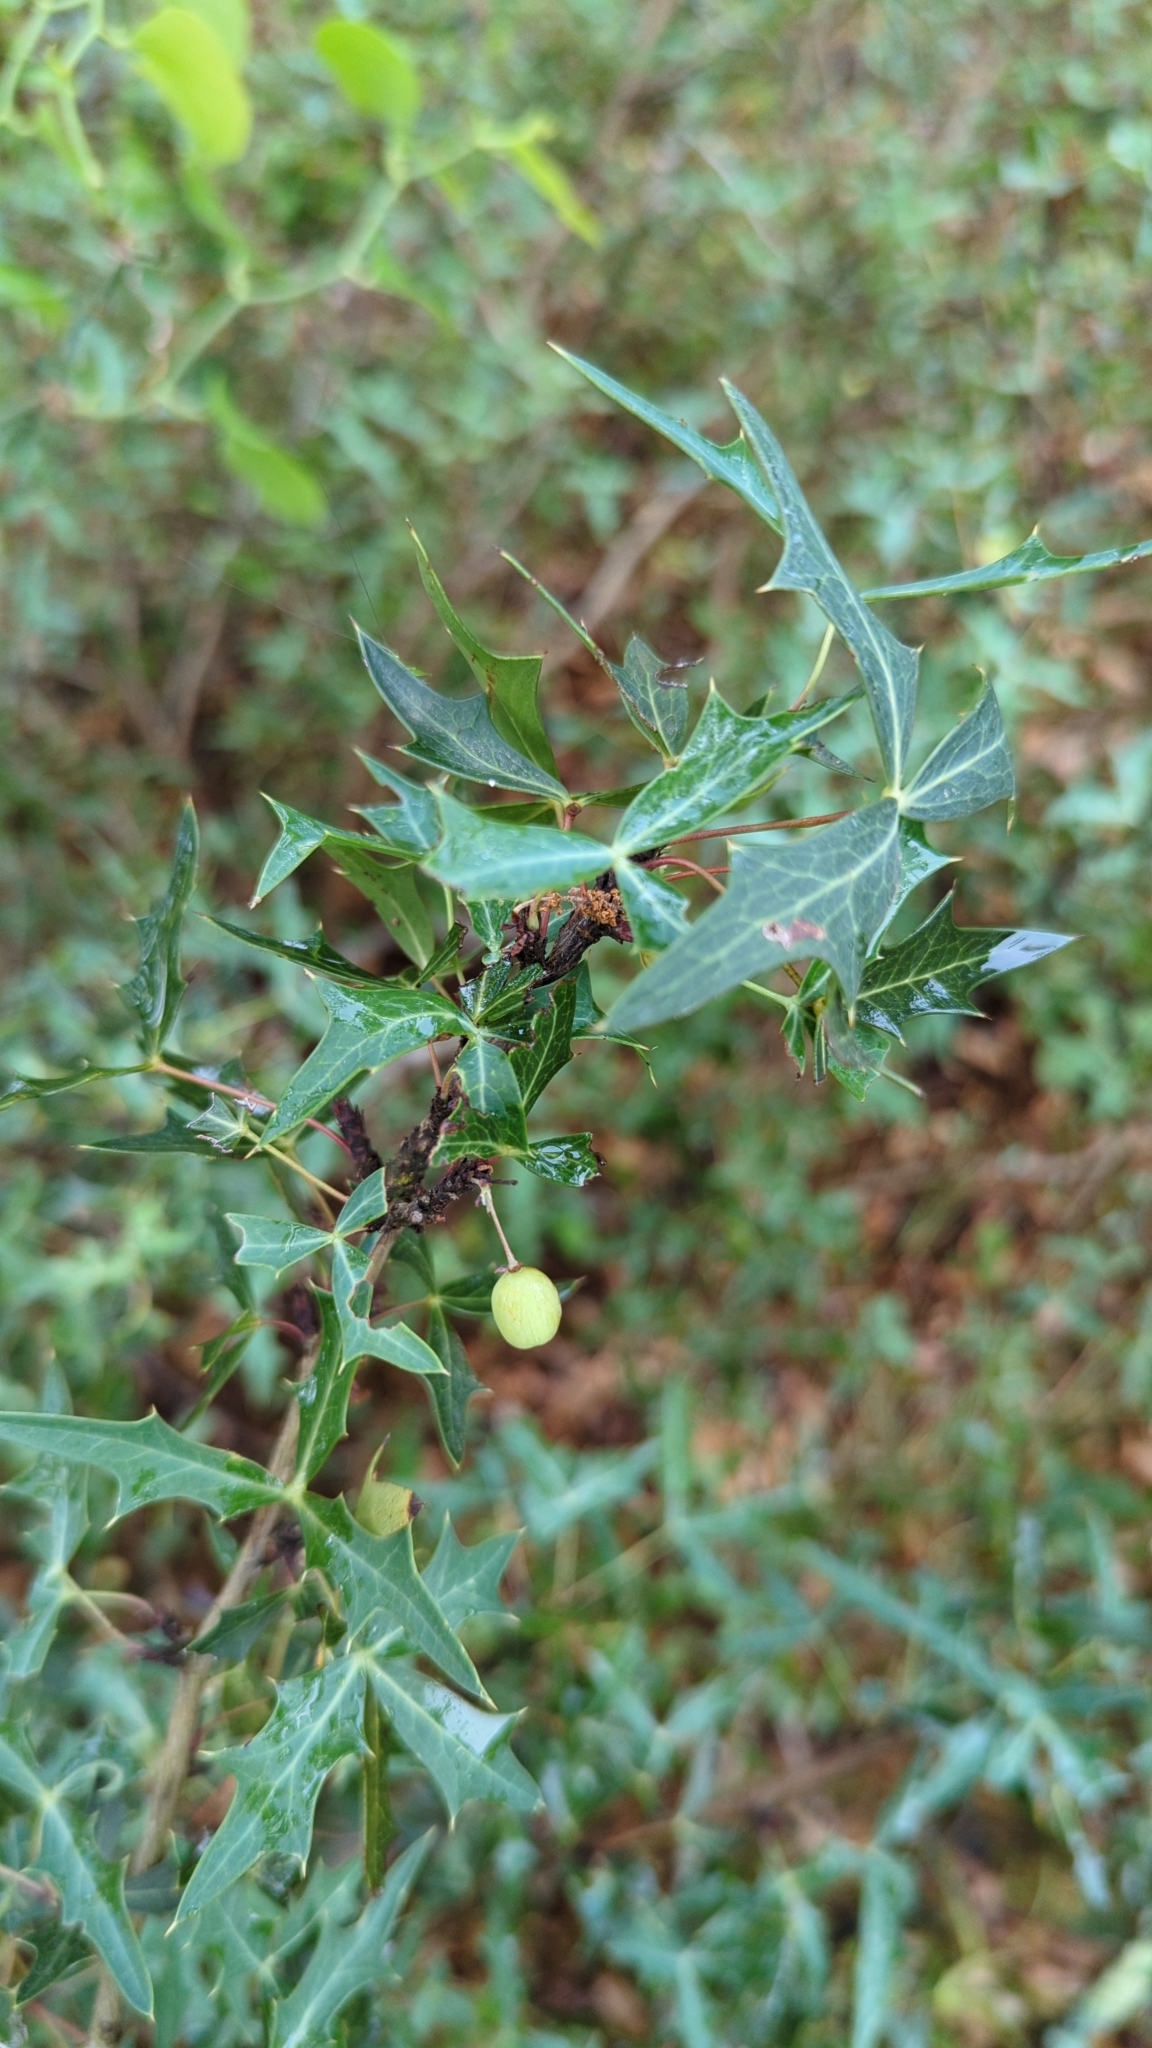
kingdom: Plantae
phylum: Tracheophyta
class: Magnoliopsida
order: Ranunculales
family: Berberidaceae
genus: Alloberberis
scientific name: Alloberberis trifoliolata
